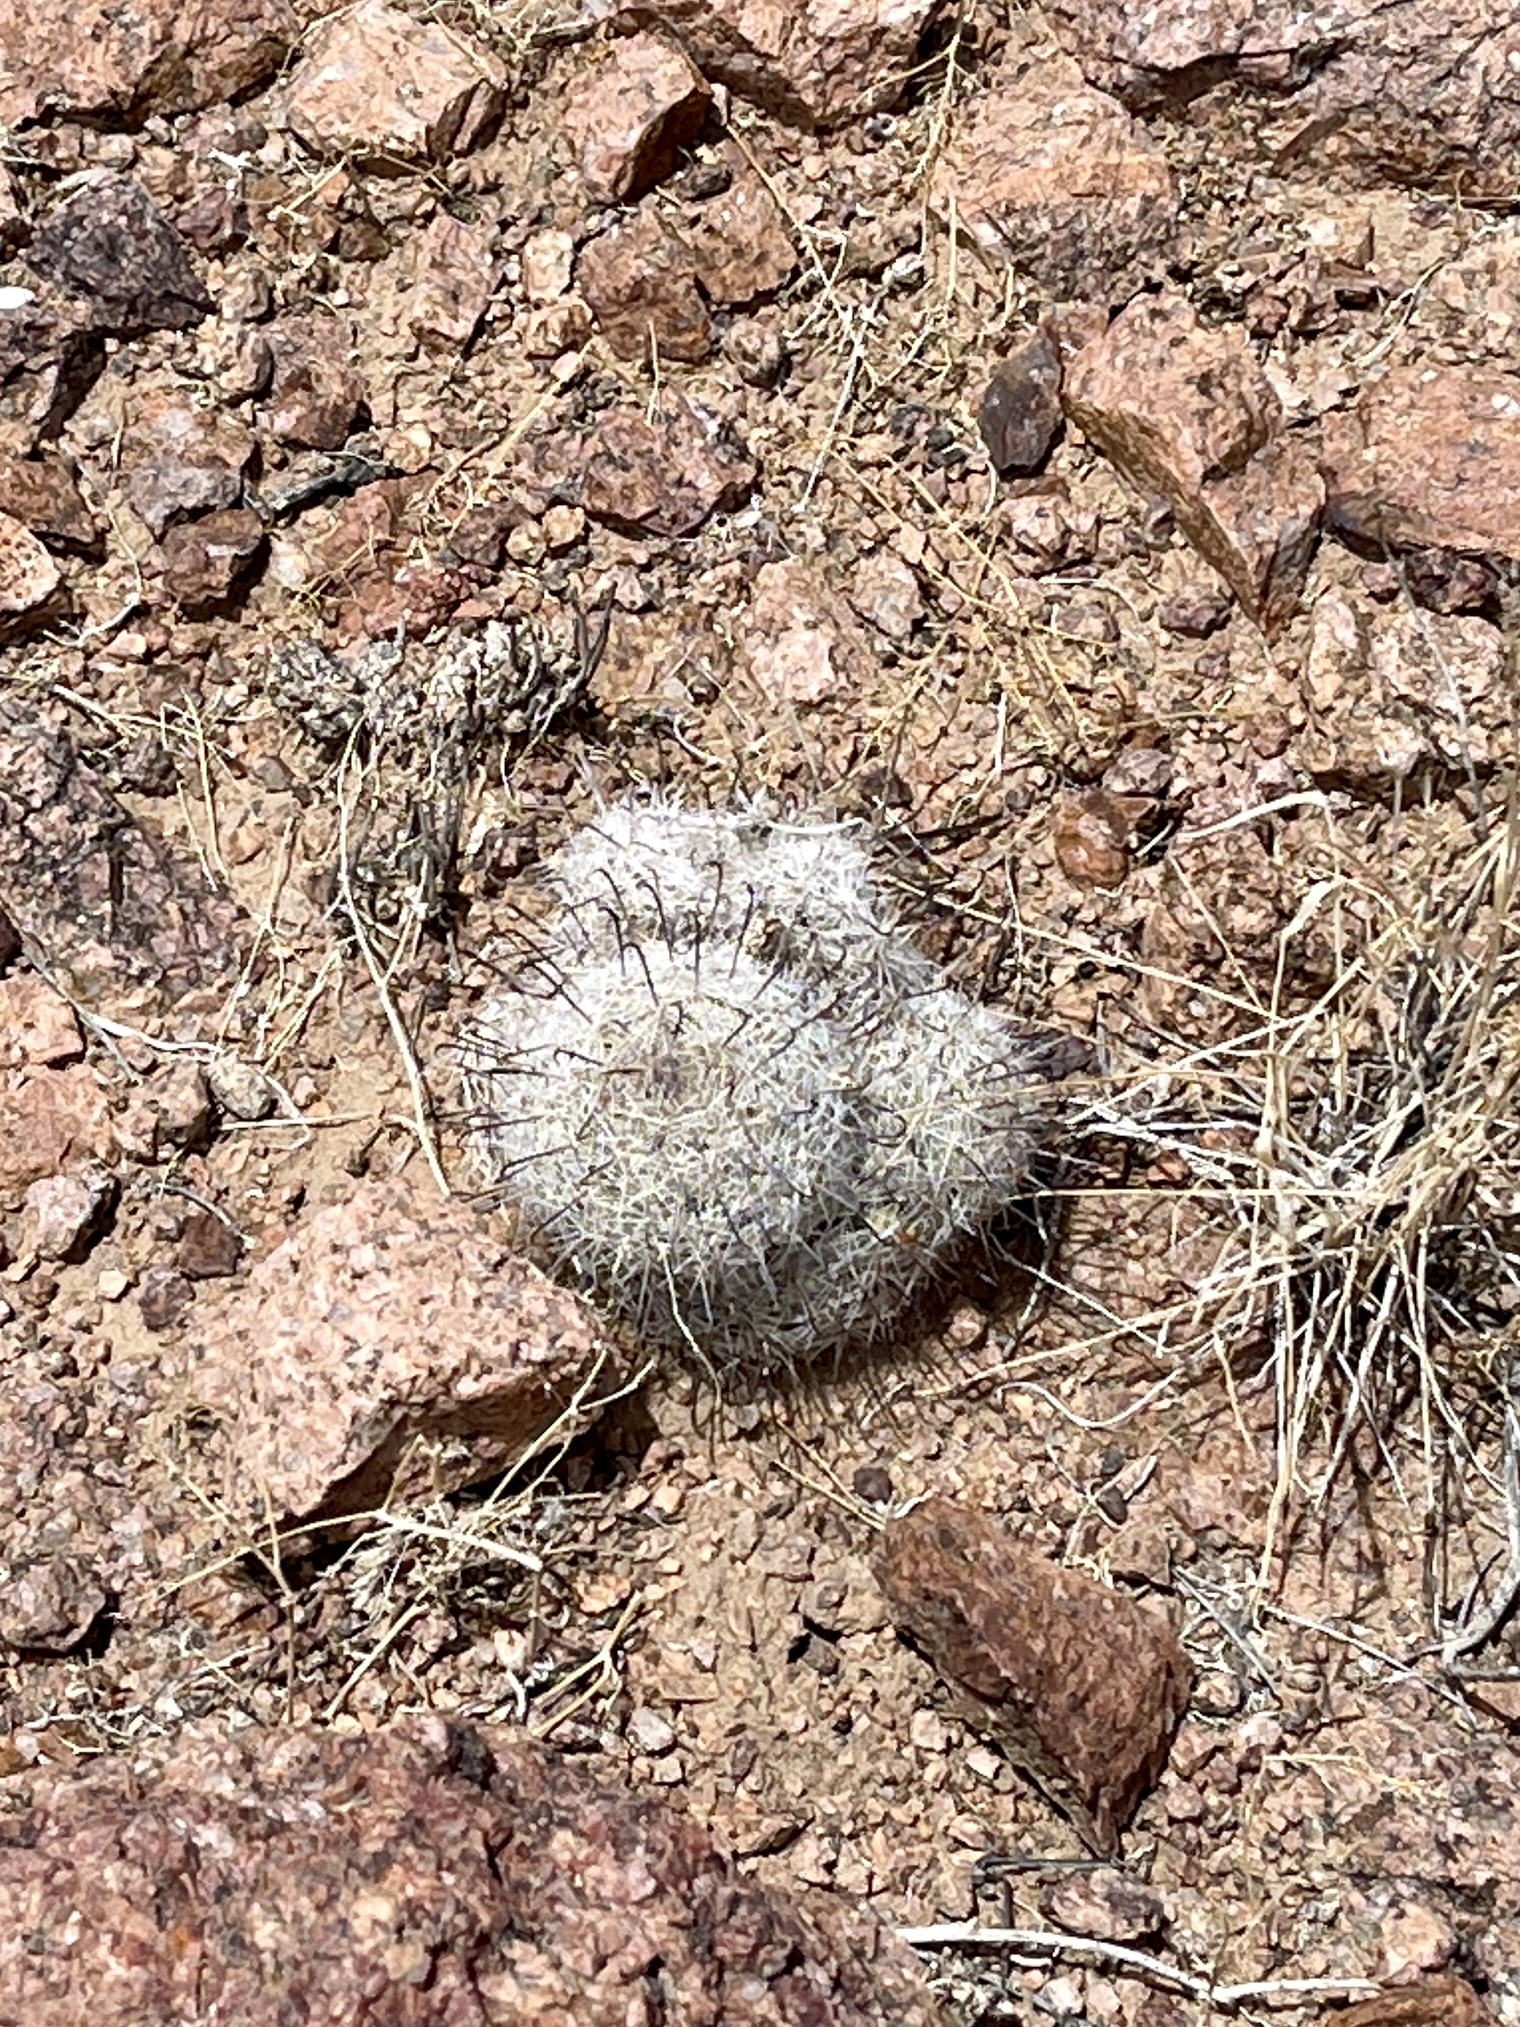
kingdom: Plantae
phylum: Tracheophyta
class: Magnoliopsida
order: Caryophyllales
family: Cactaceae
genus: Cochemiea
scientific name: Cochemiea grahamii
